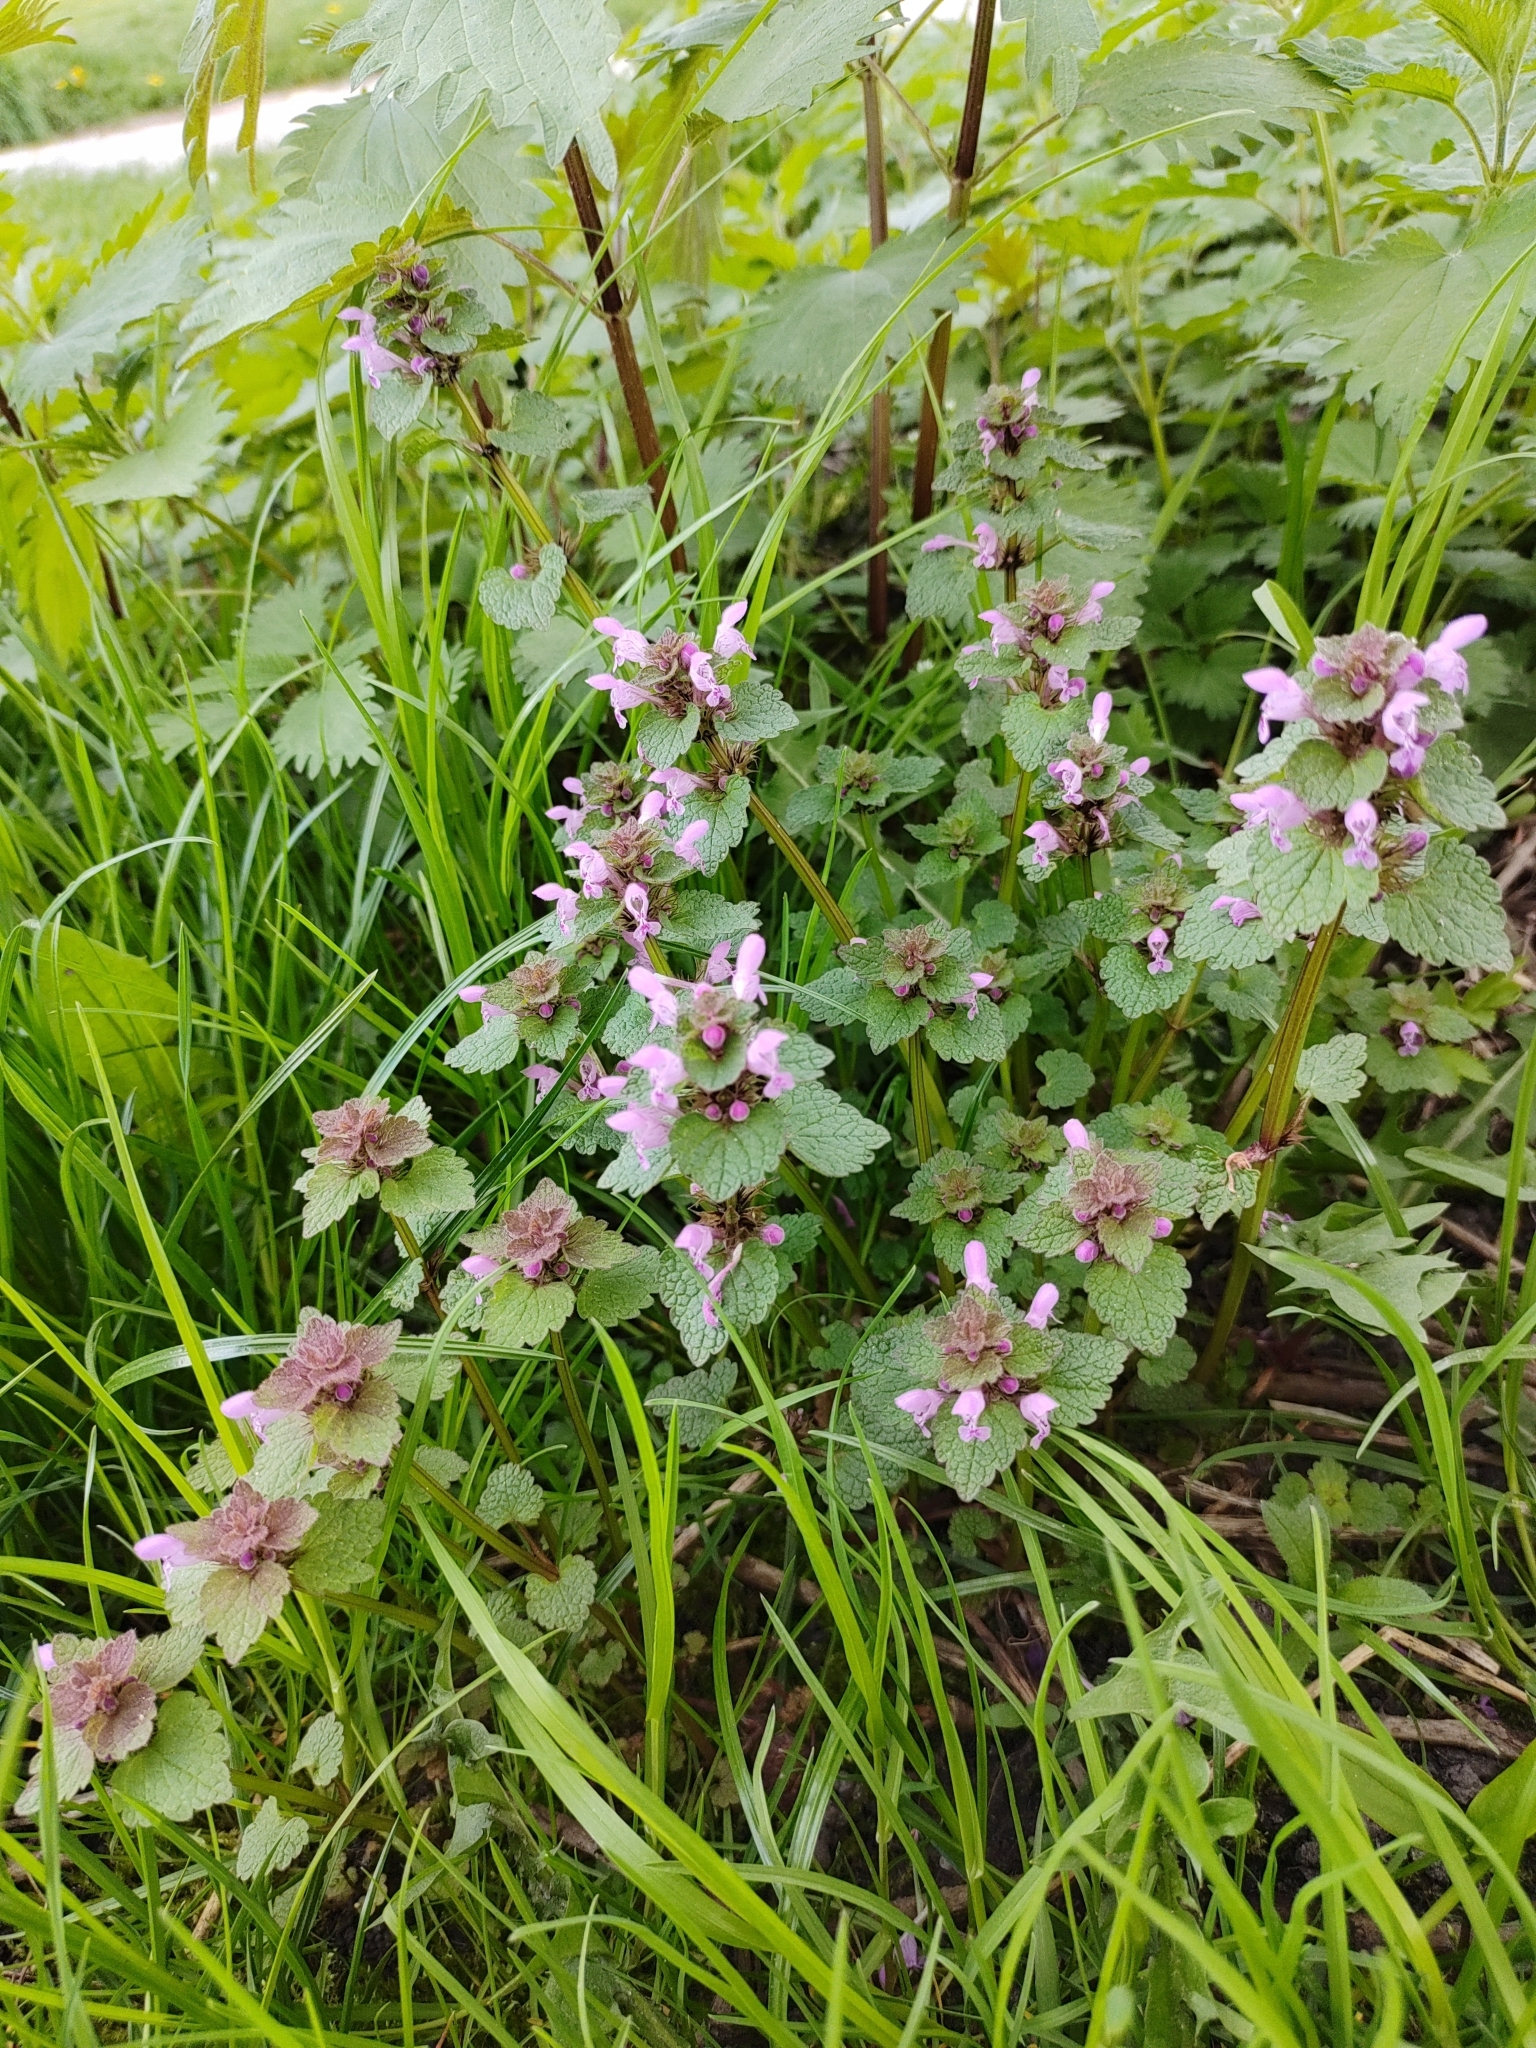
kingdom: Plantae
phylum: Tracheophyta
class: Magnoliopsida
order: Lamiales
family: Lamiaceae
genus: Lamium
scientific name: Lamium purpureum
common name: Red dead-nettle
